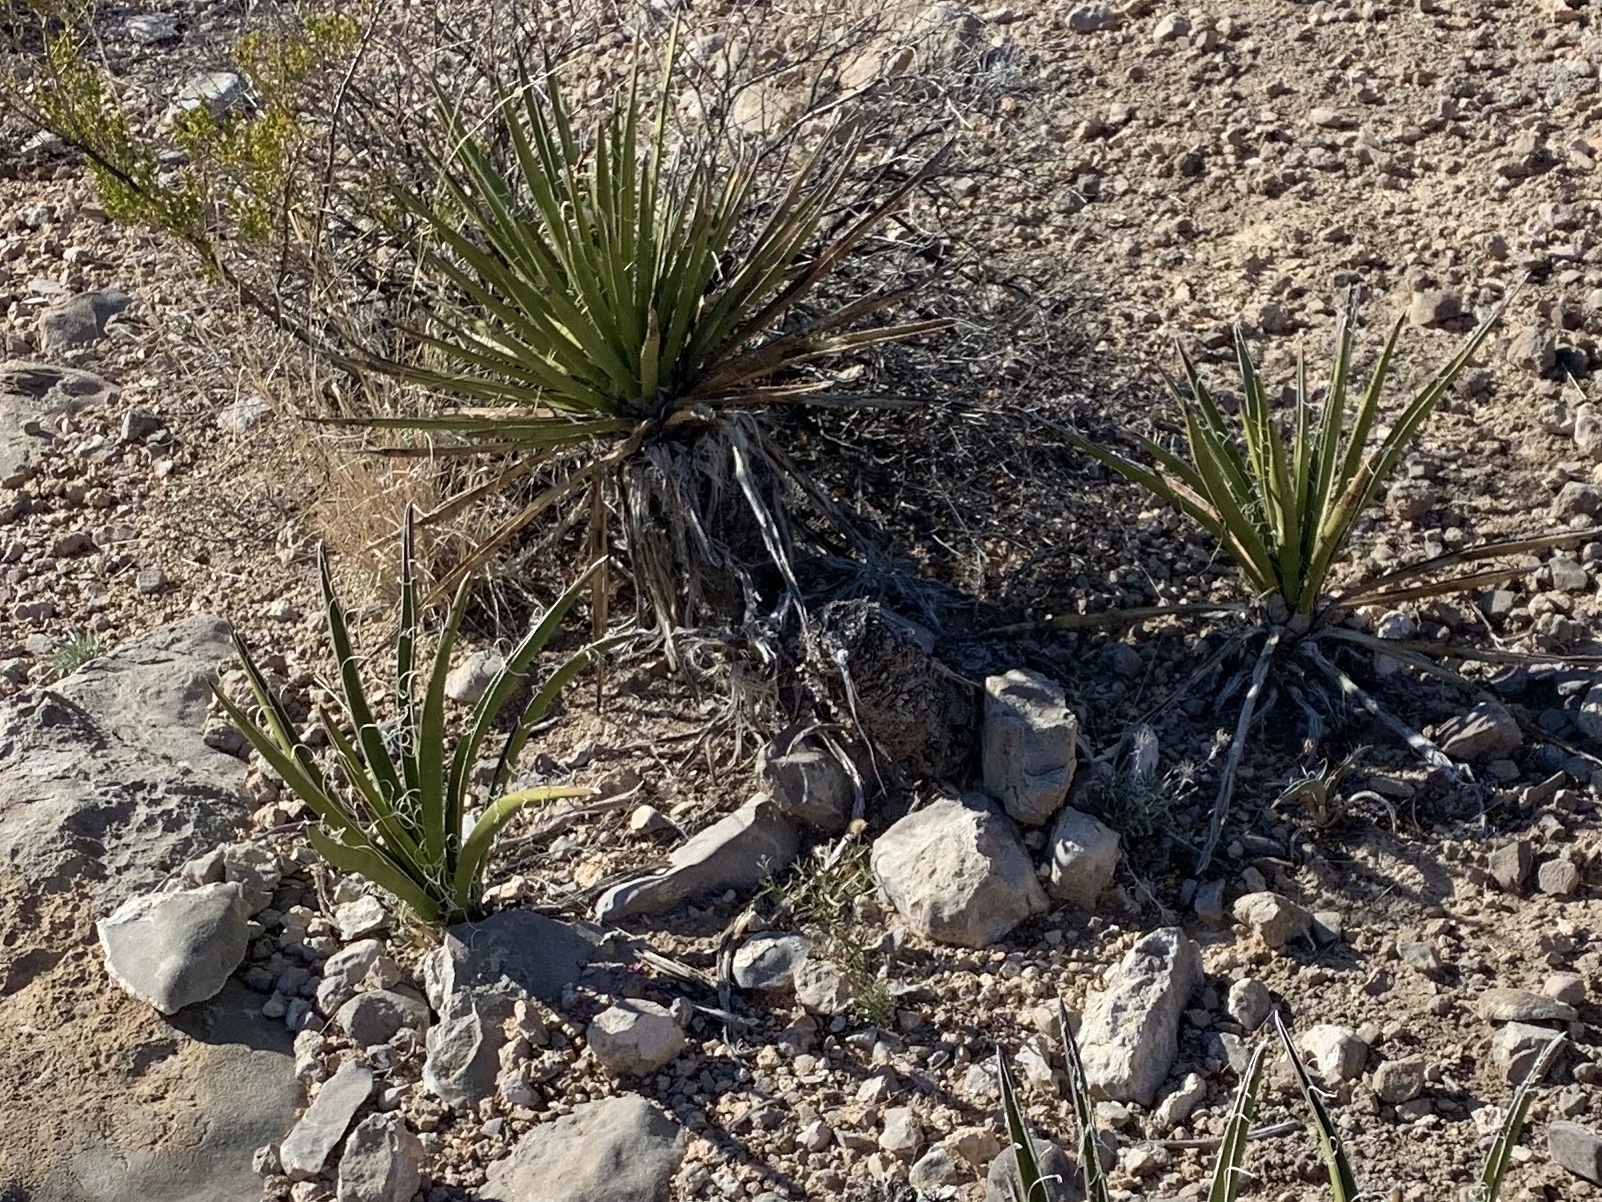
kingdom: Plantae
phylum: Tracheophyta
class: Liliopsida
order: Asparagales
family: Asparagaceae
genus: Yucca
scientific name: Yucca treculiana
